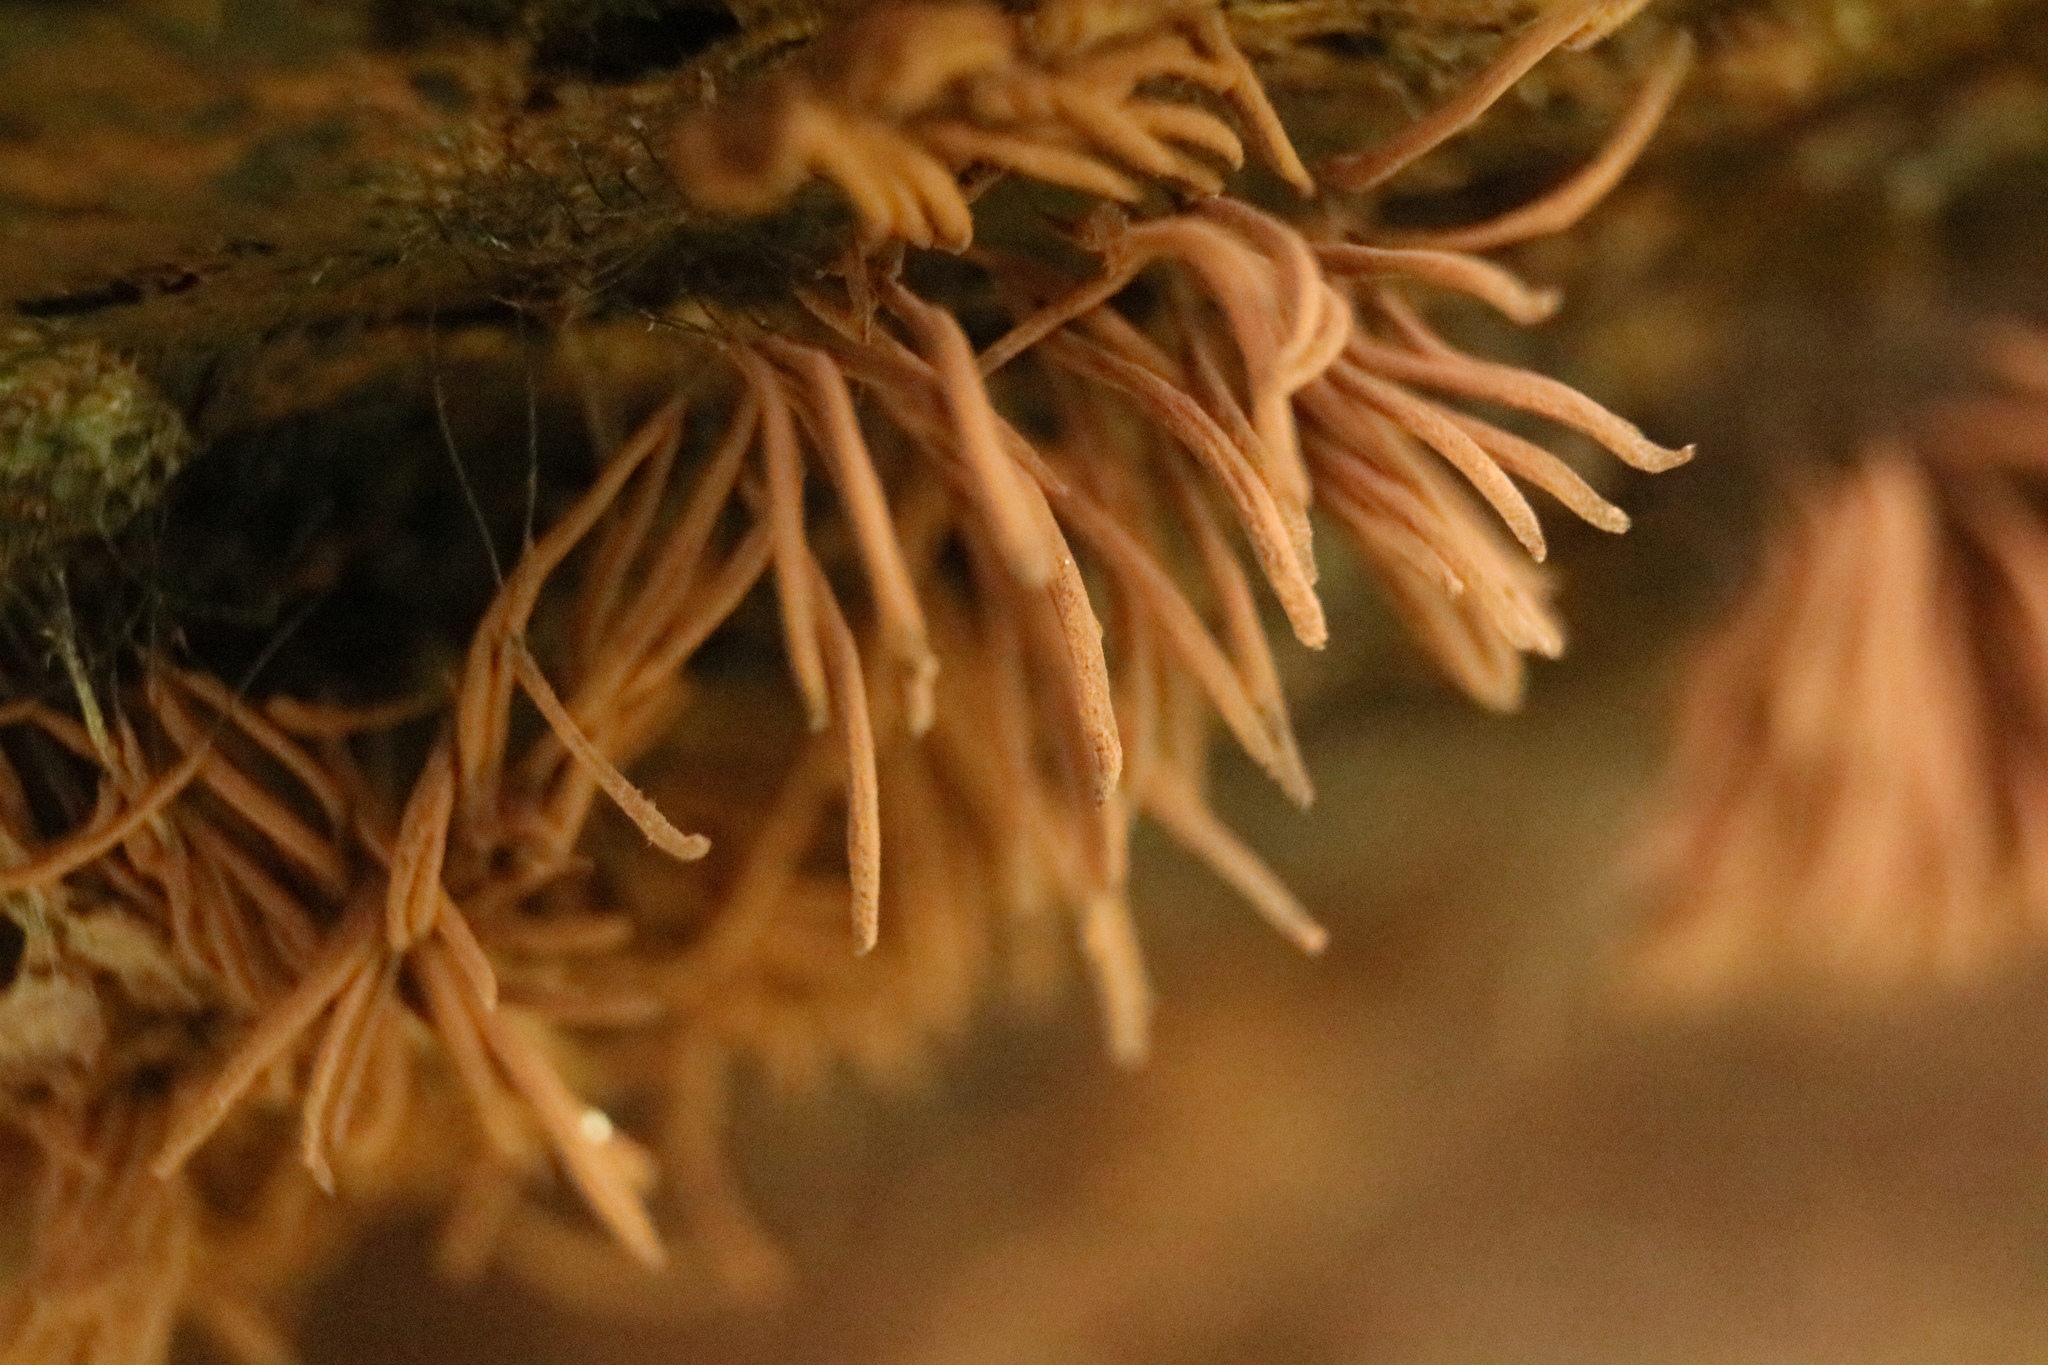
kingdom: Protozoa
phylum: Mycetozoa
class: Myxomycetes
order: Stemonitidales
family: Stemonitidaceae
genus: Stemonitis
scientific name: Stemonitis axifera
